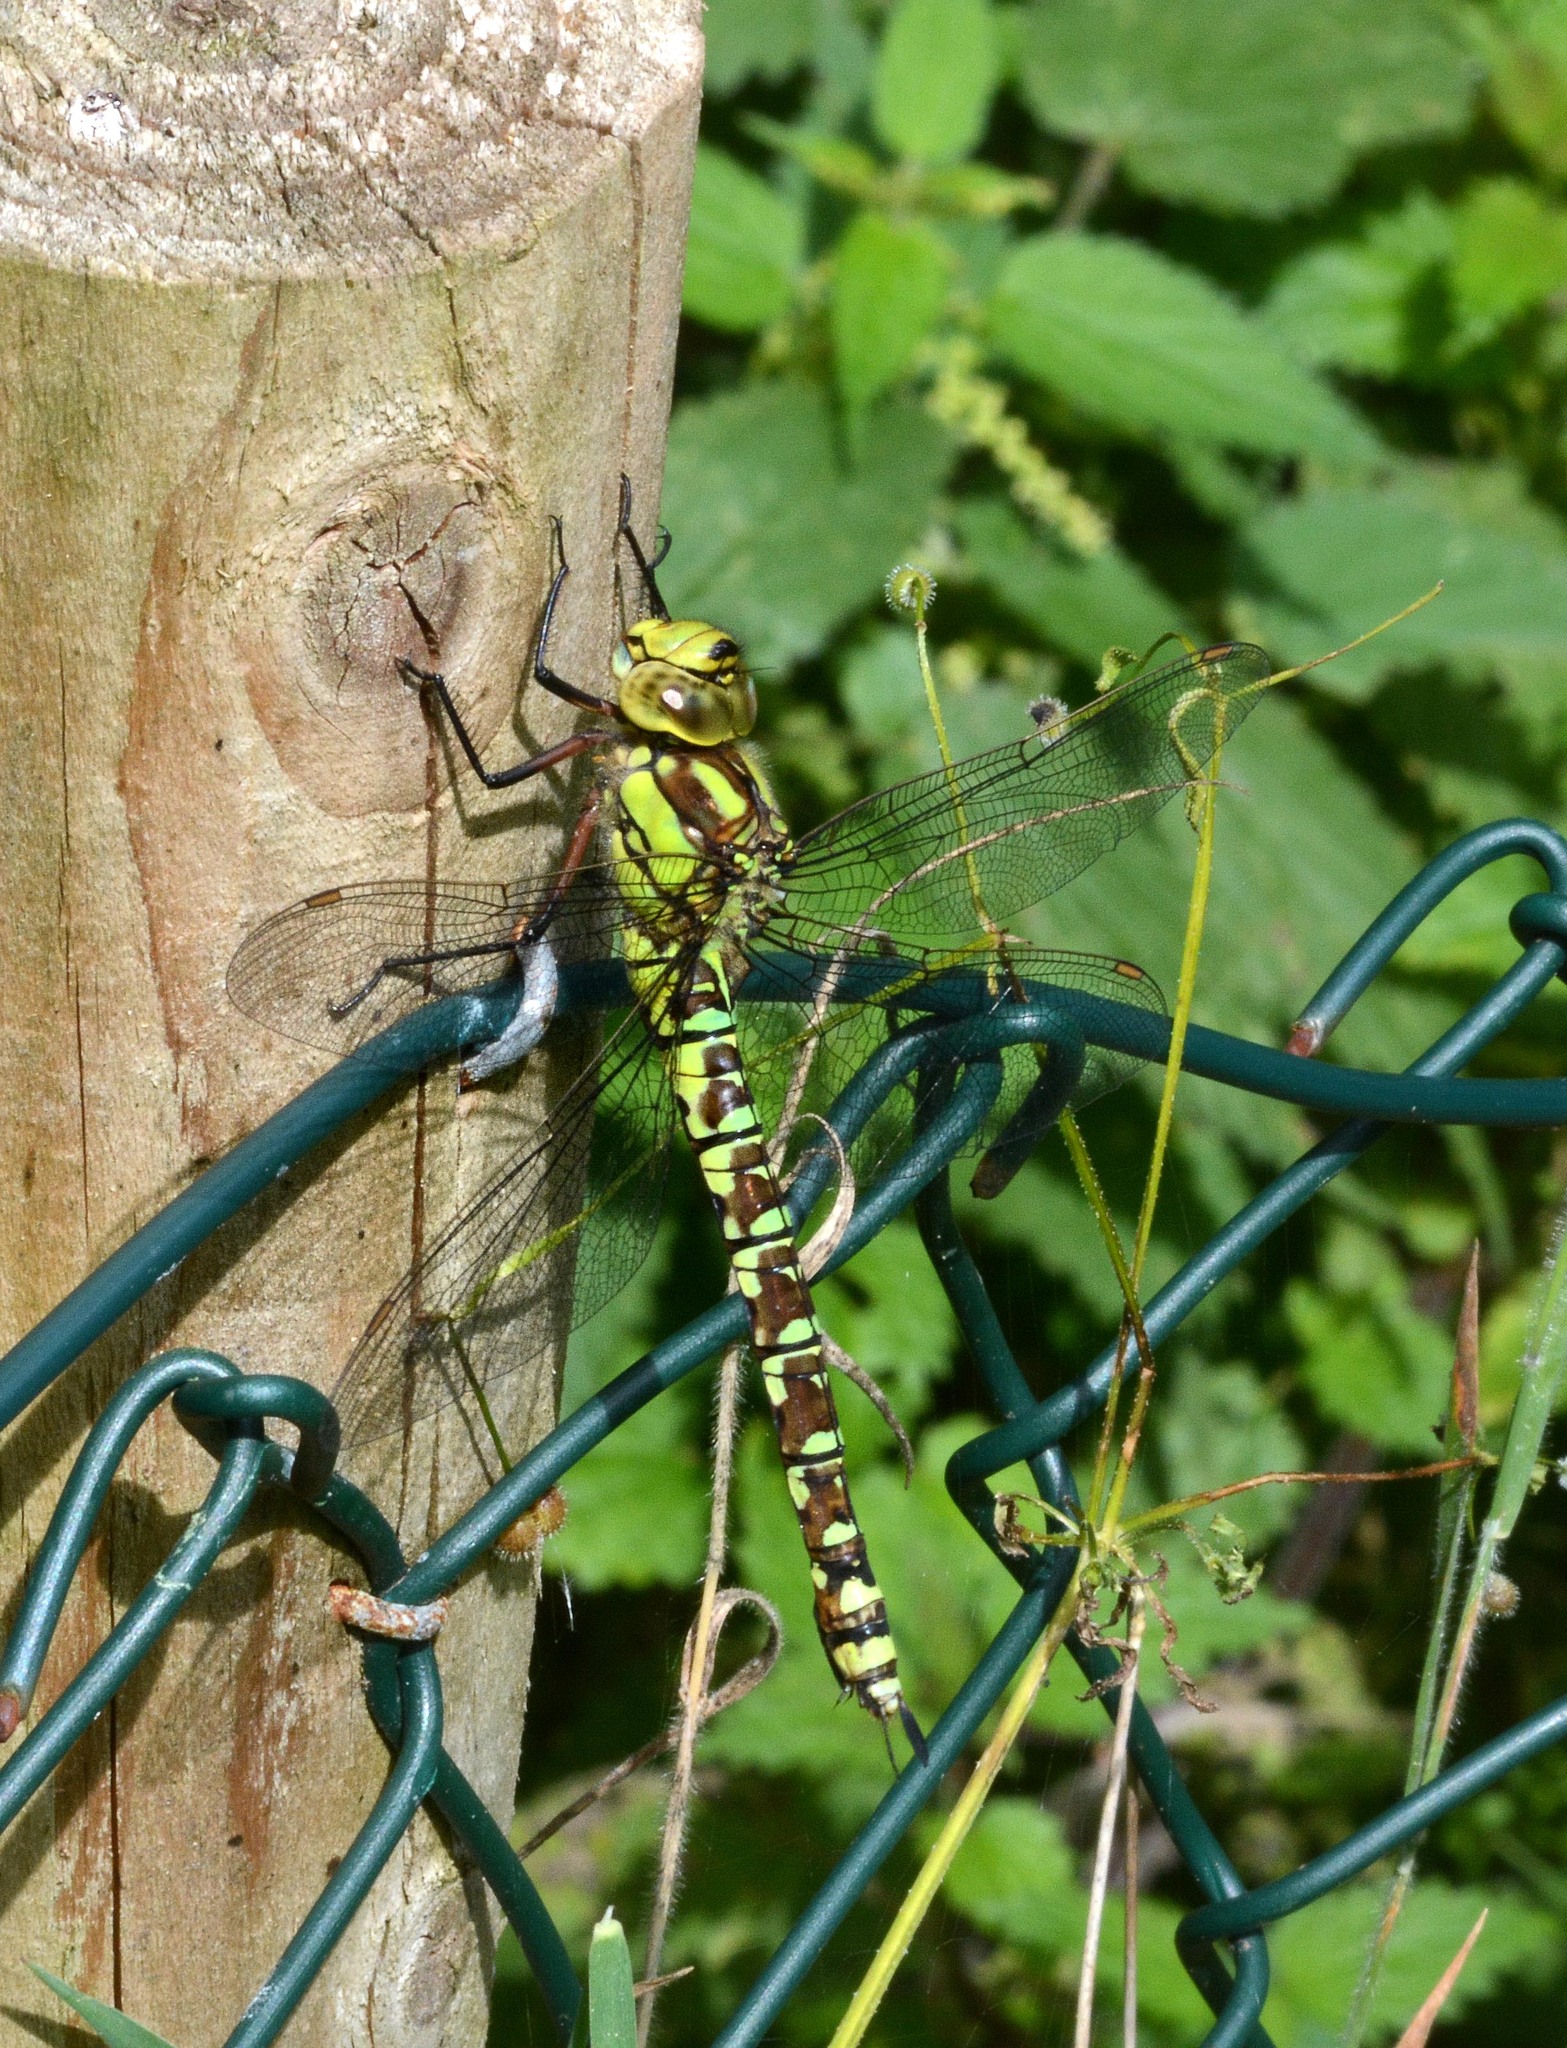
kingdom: Animalia
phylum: Arthropoda
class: Insecta
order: Odonata
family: Aeshnidae
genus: Aeshna
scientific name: Aeshna cyanea
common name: Southern hawker
